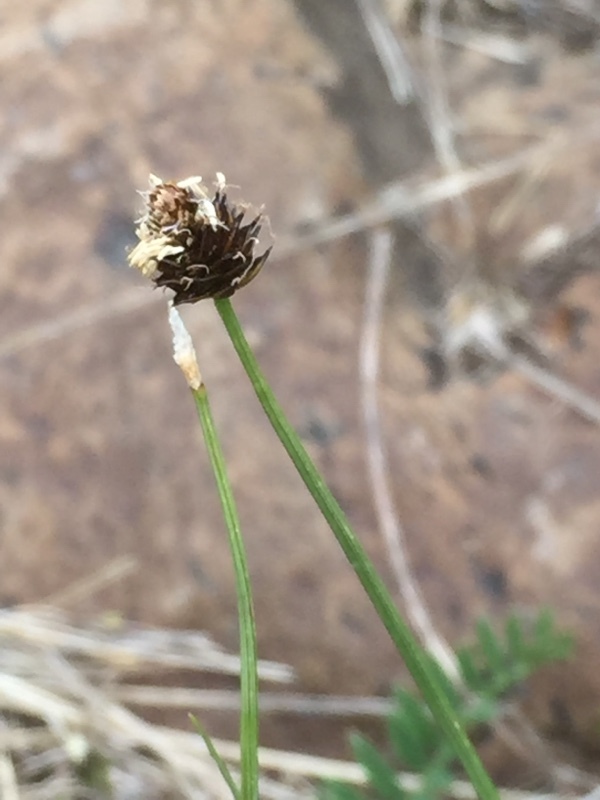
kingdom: Plantae
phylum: Tracheophyta
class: Liliopsida
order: Poales
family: Cyperaceae
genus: Carex
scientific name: Carex oreophila
